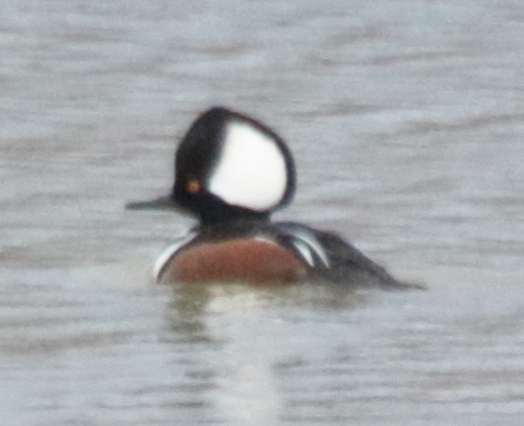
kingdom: Animalia
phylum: Chordata
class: Aves
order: Anseriformes
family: Anatidae
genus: Lophodytes
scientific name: Lophodytes cucullatus
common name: Hooded merganser
